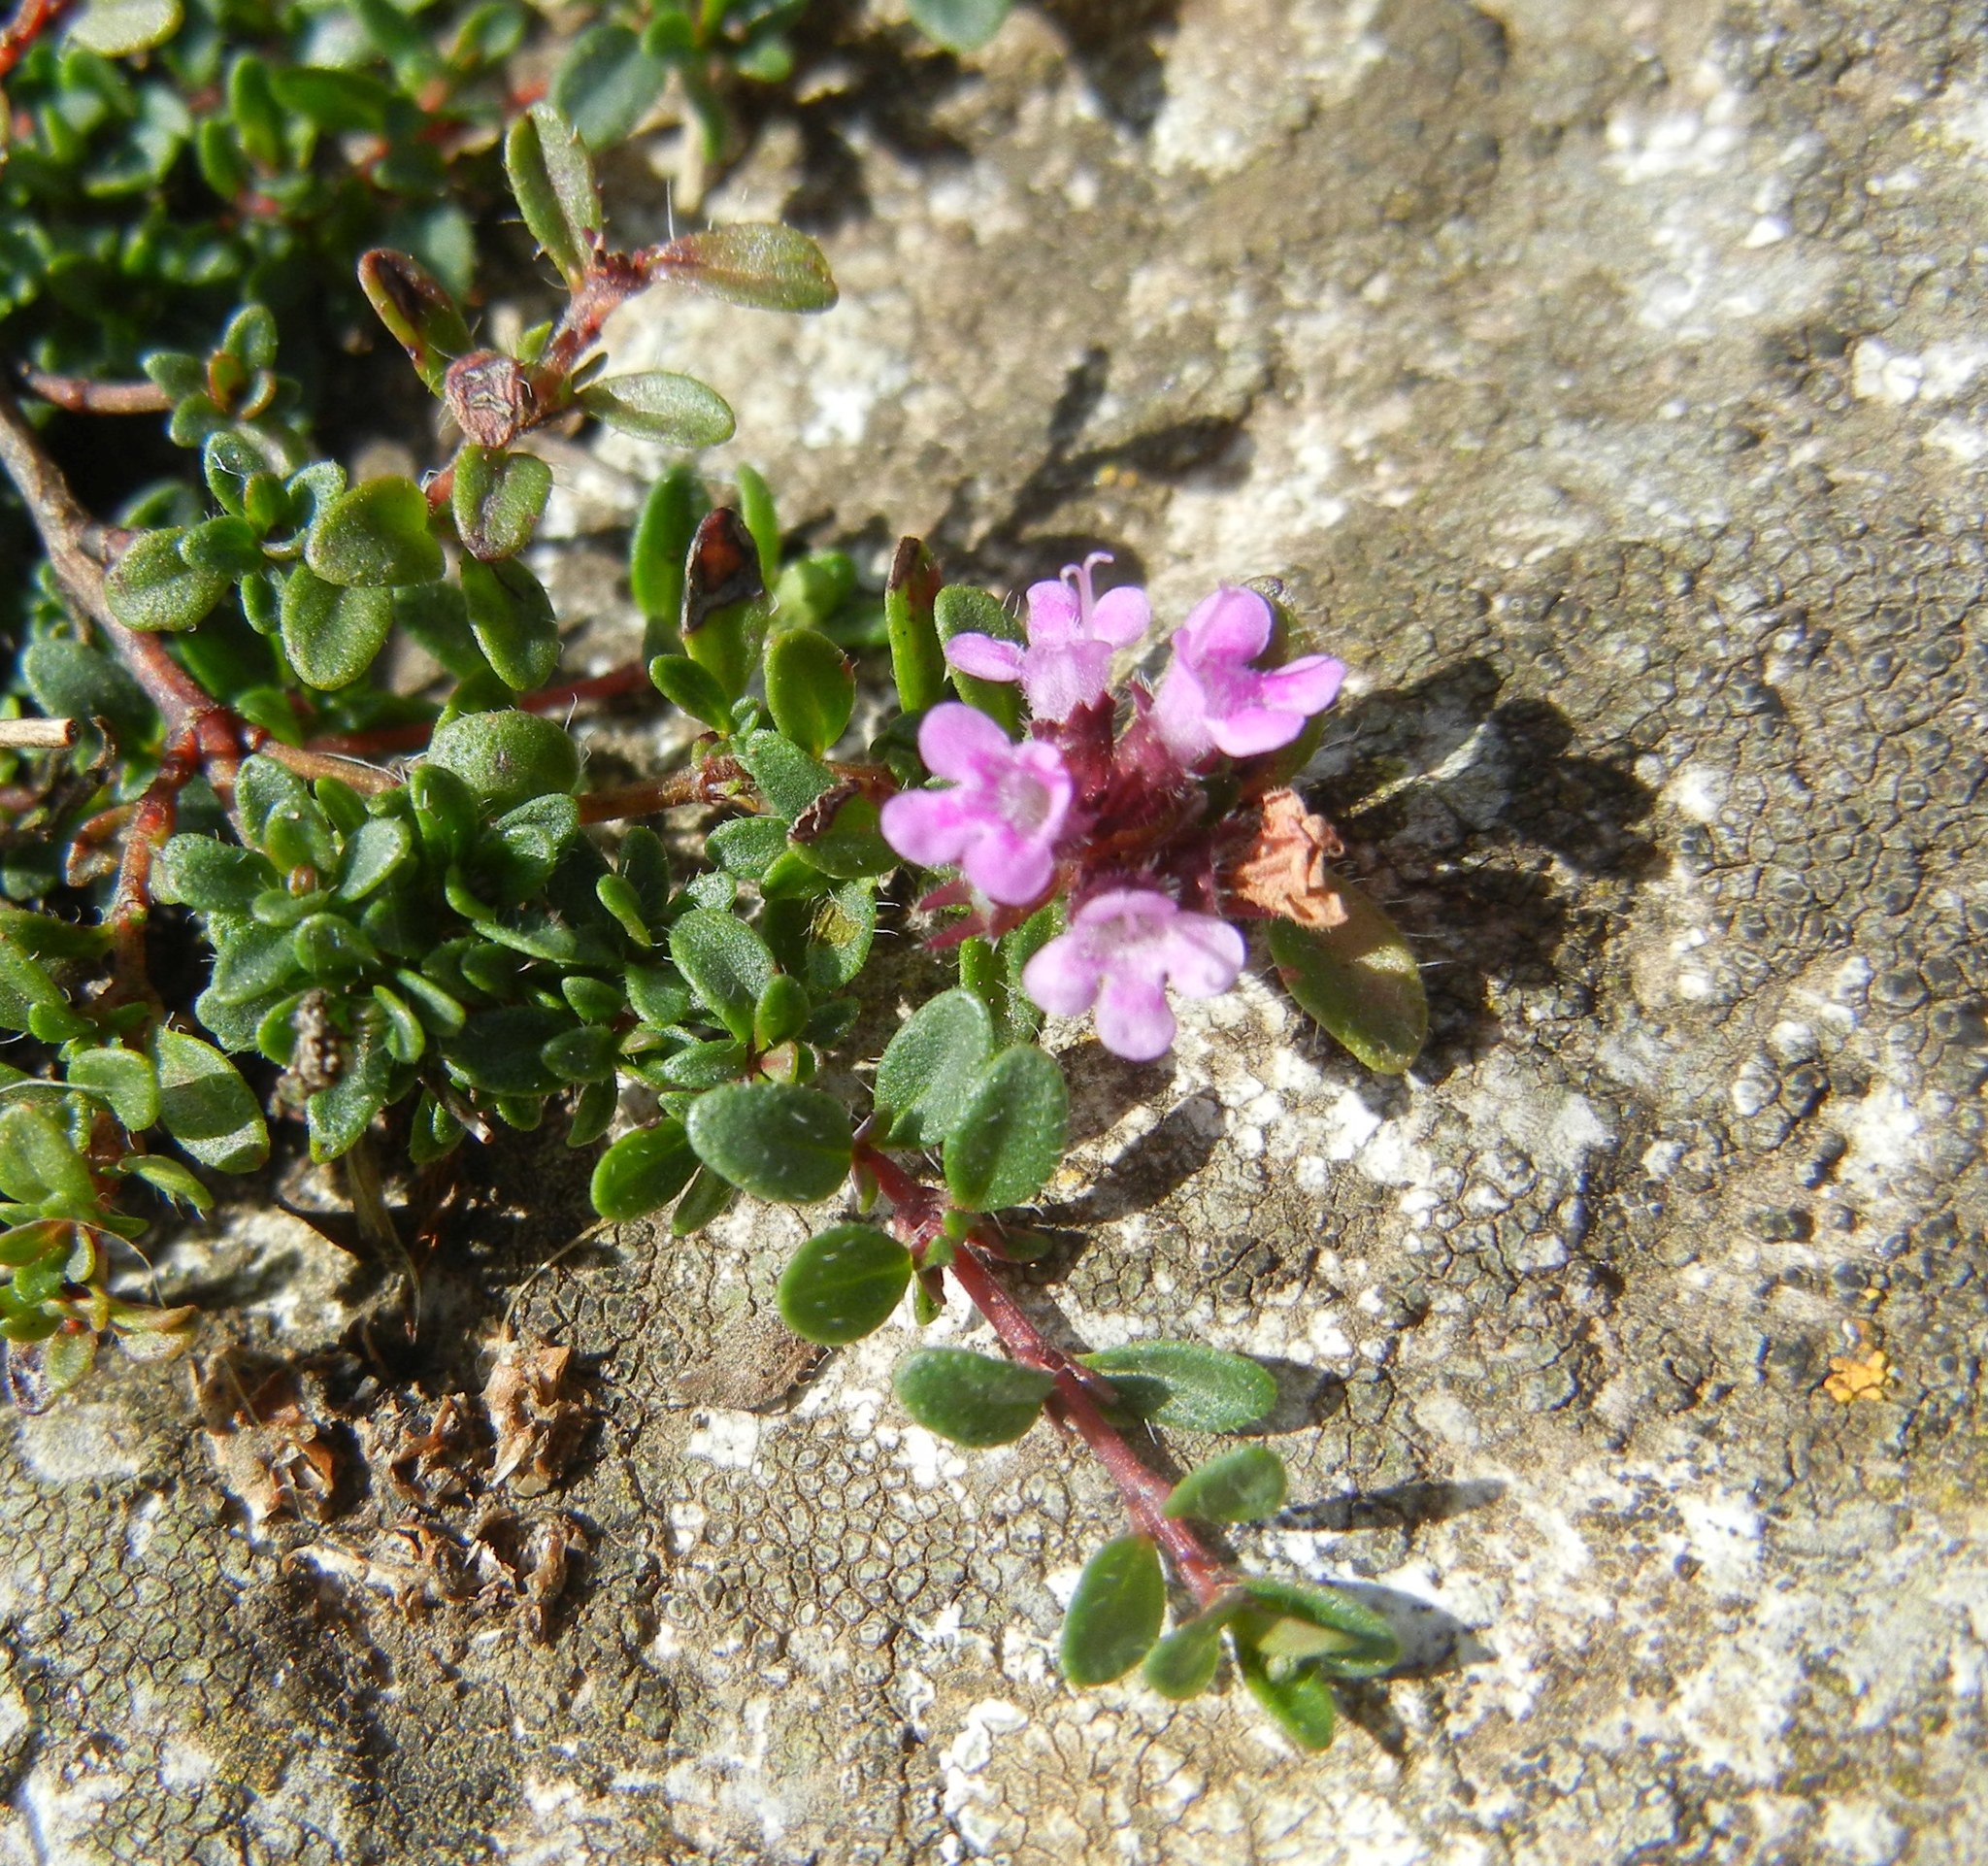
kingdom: Plantae
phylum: Tracheophyta
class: Magnoliopsida
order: Lamiales
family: Lamiaceae
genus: Thymus
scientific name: Thymus praecox
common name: Wild thyme
